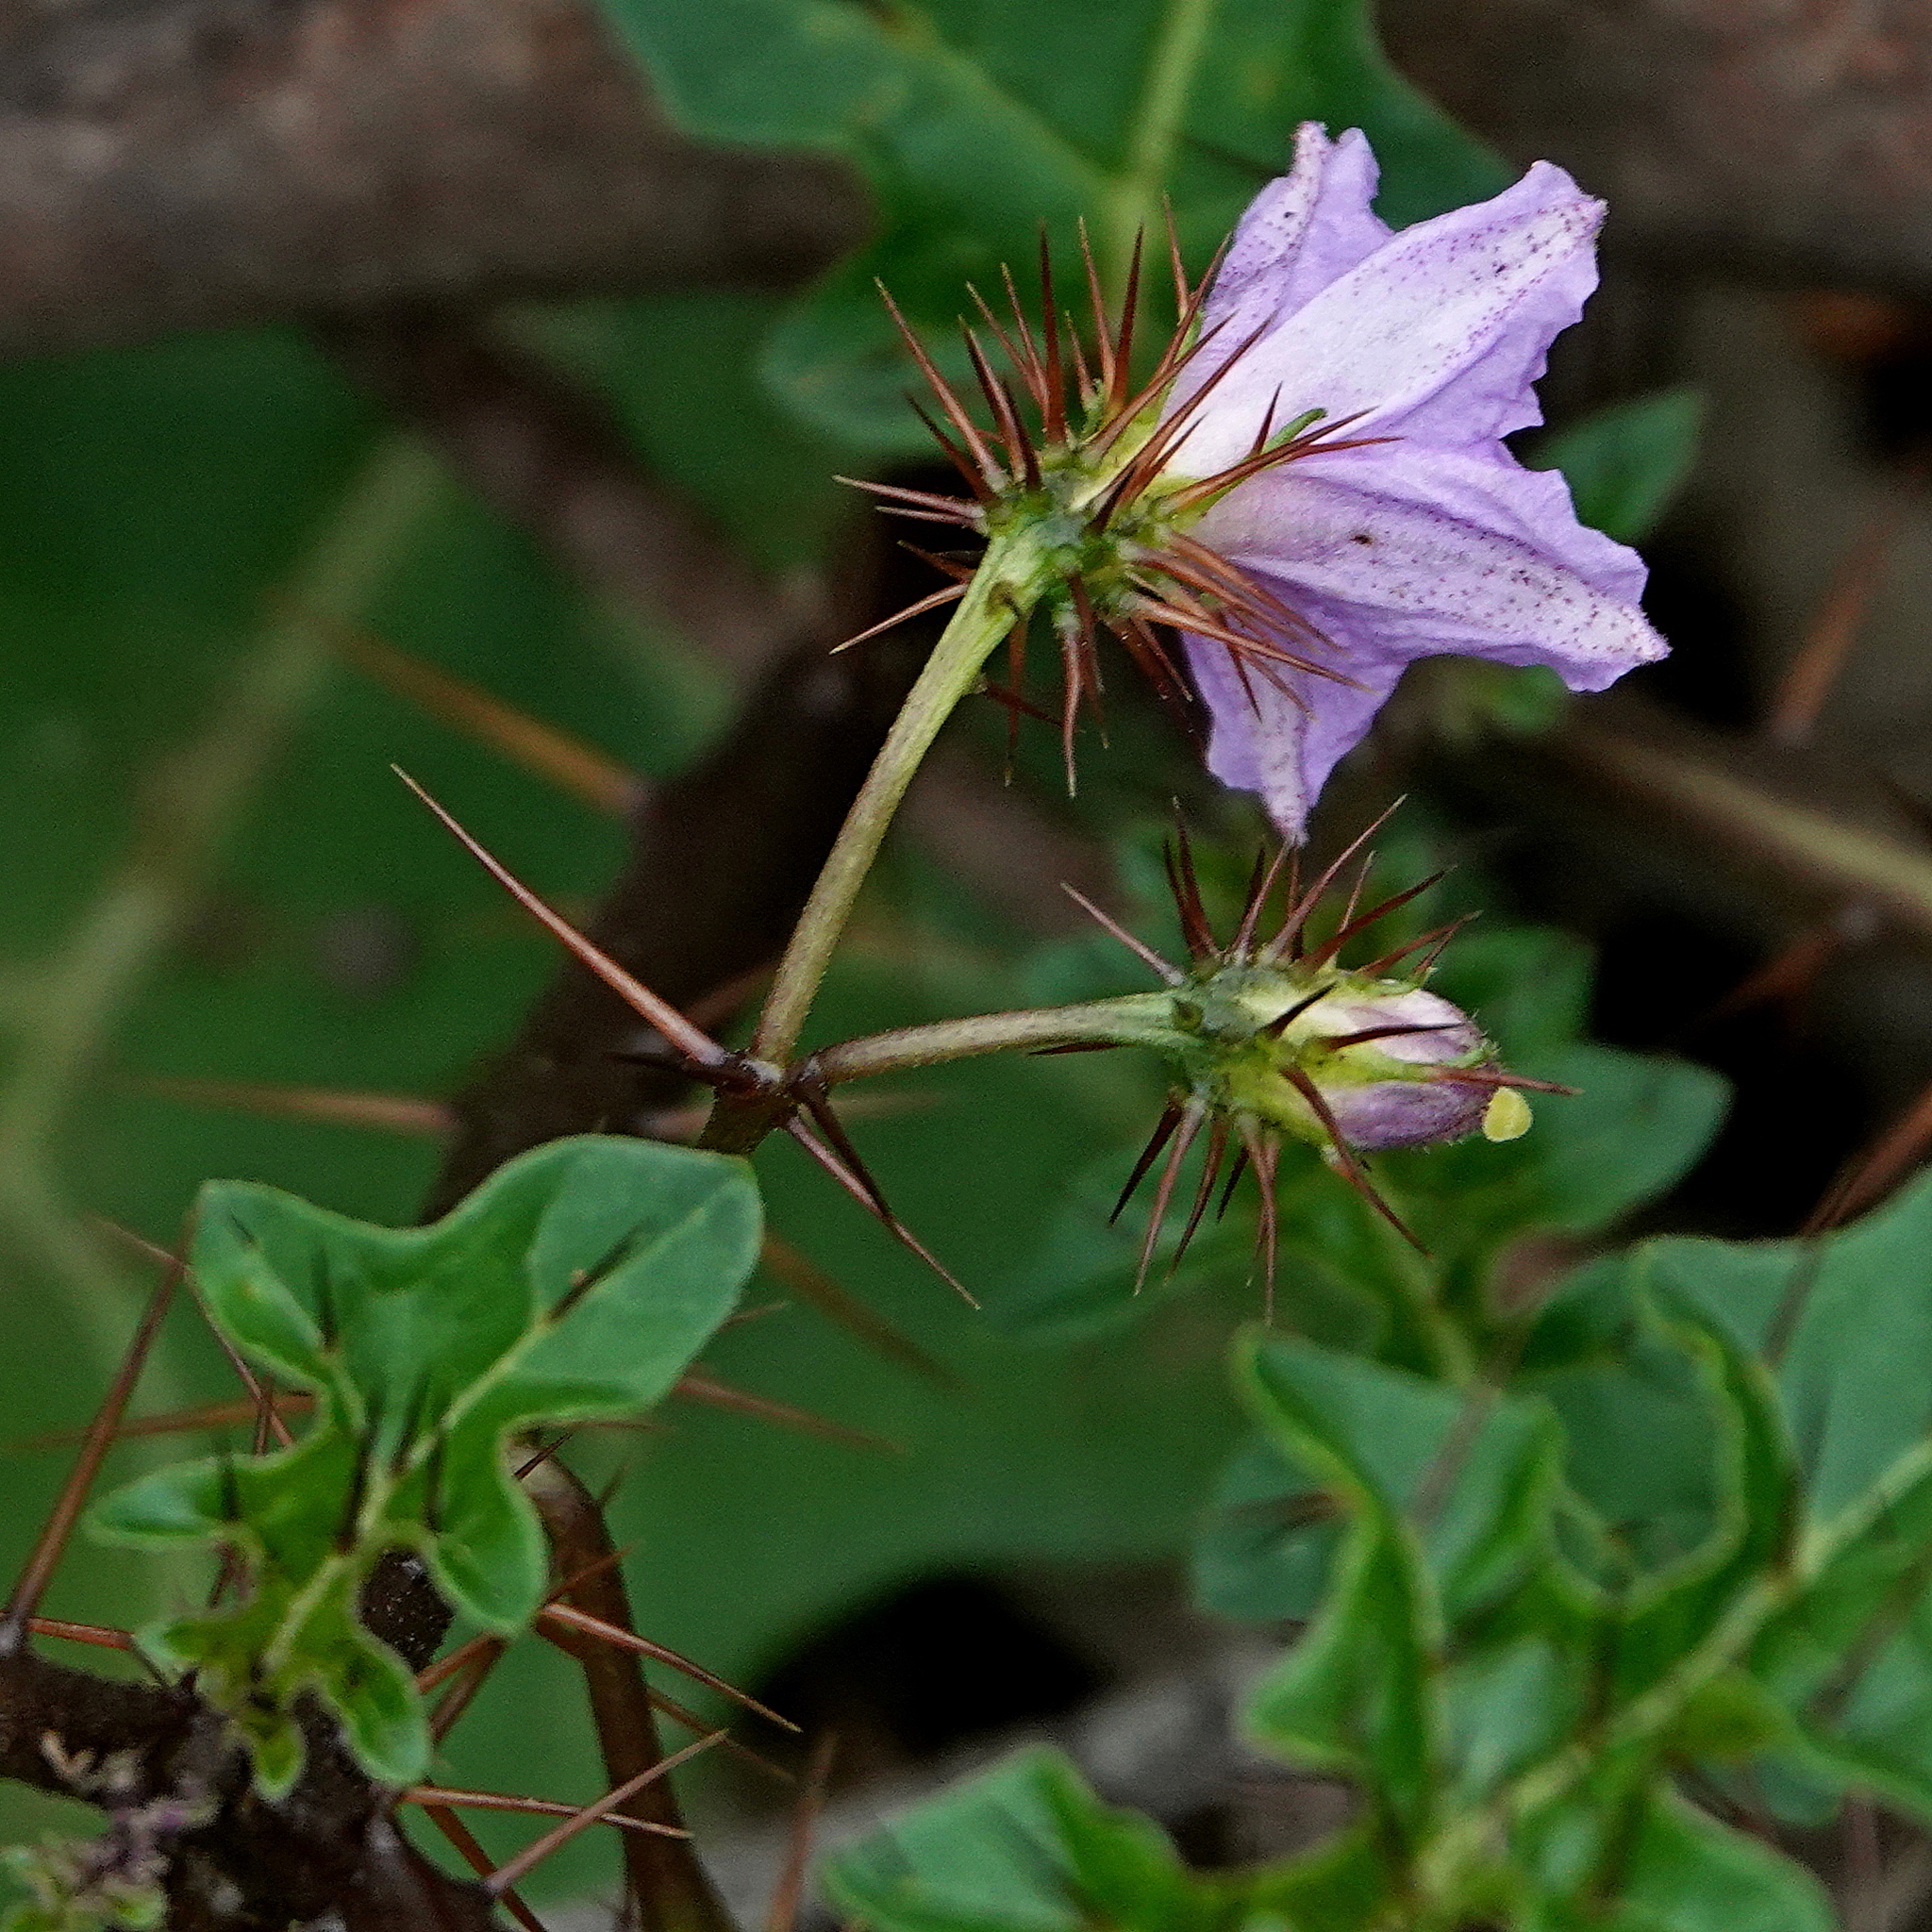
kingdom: Plantae
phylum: Tracheophyta
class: Magnoliopsida
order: Solanales
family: Solanaceae
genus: Solanum
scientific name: Solanum prinophyllum
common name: Forest nightshade
